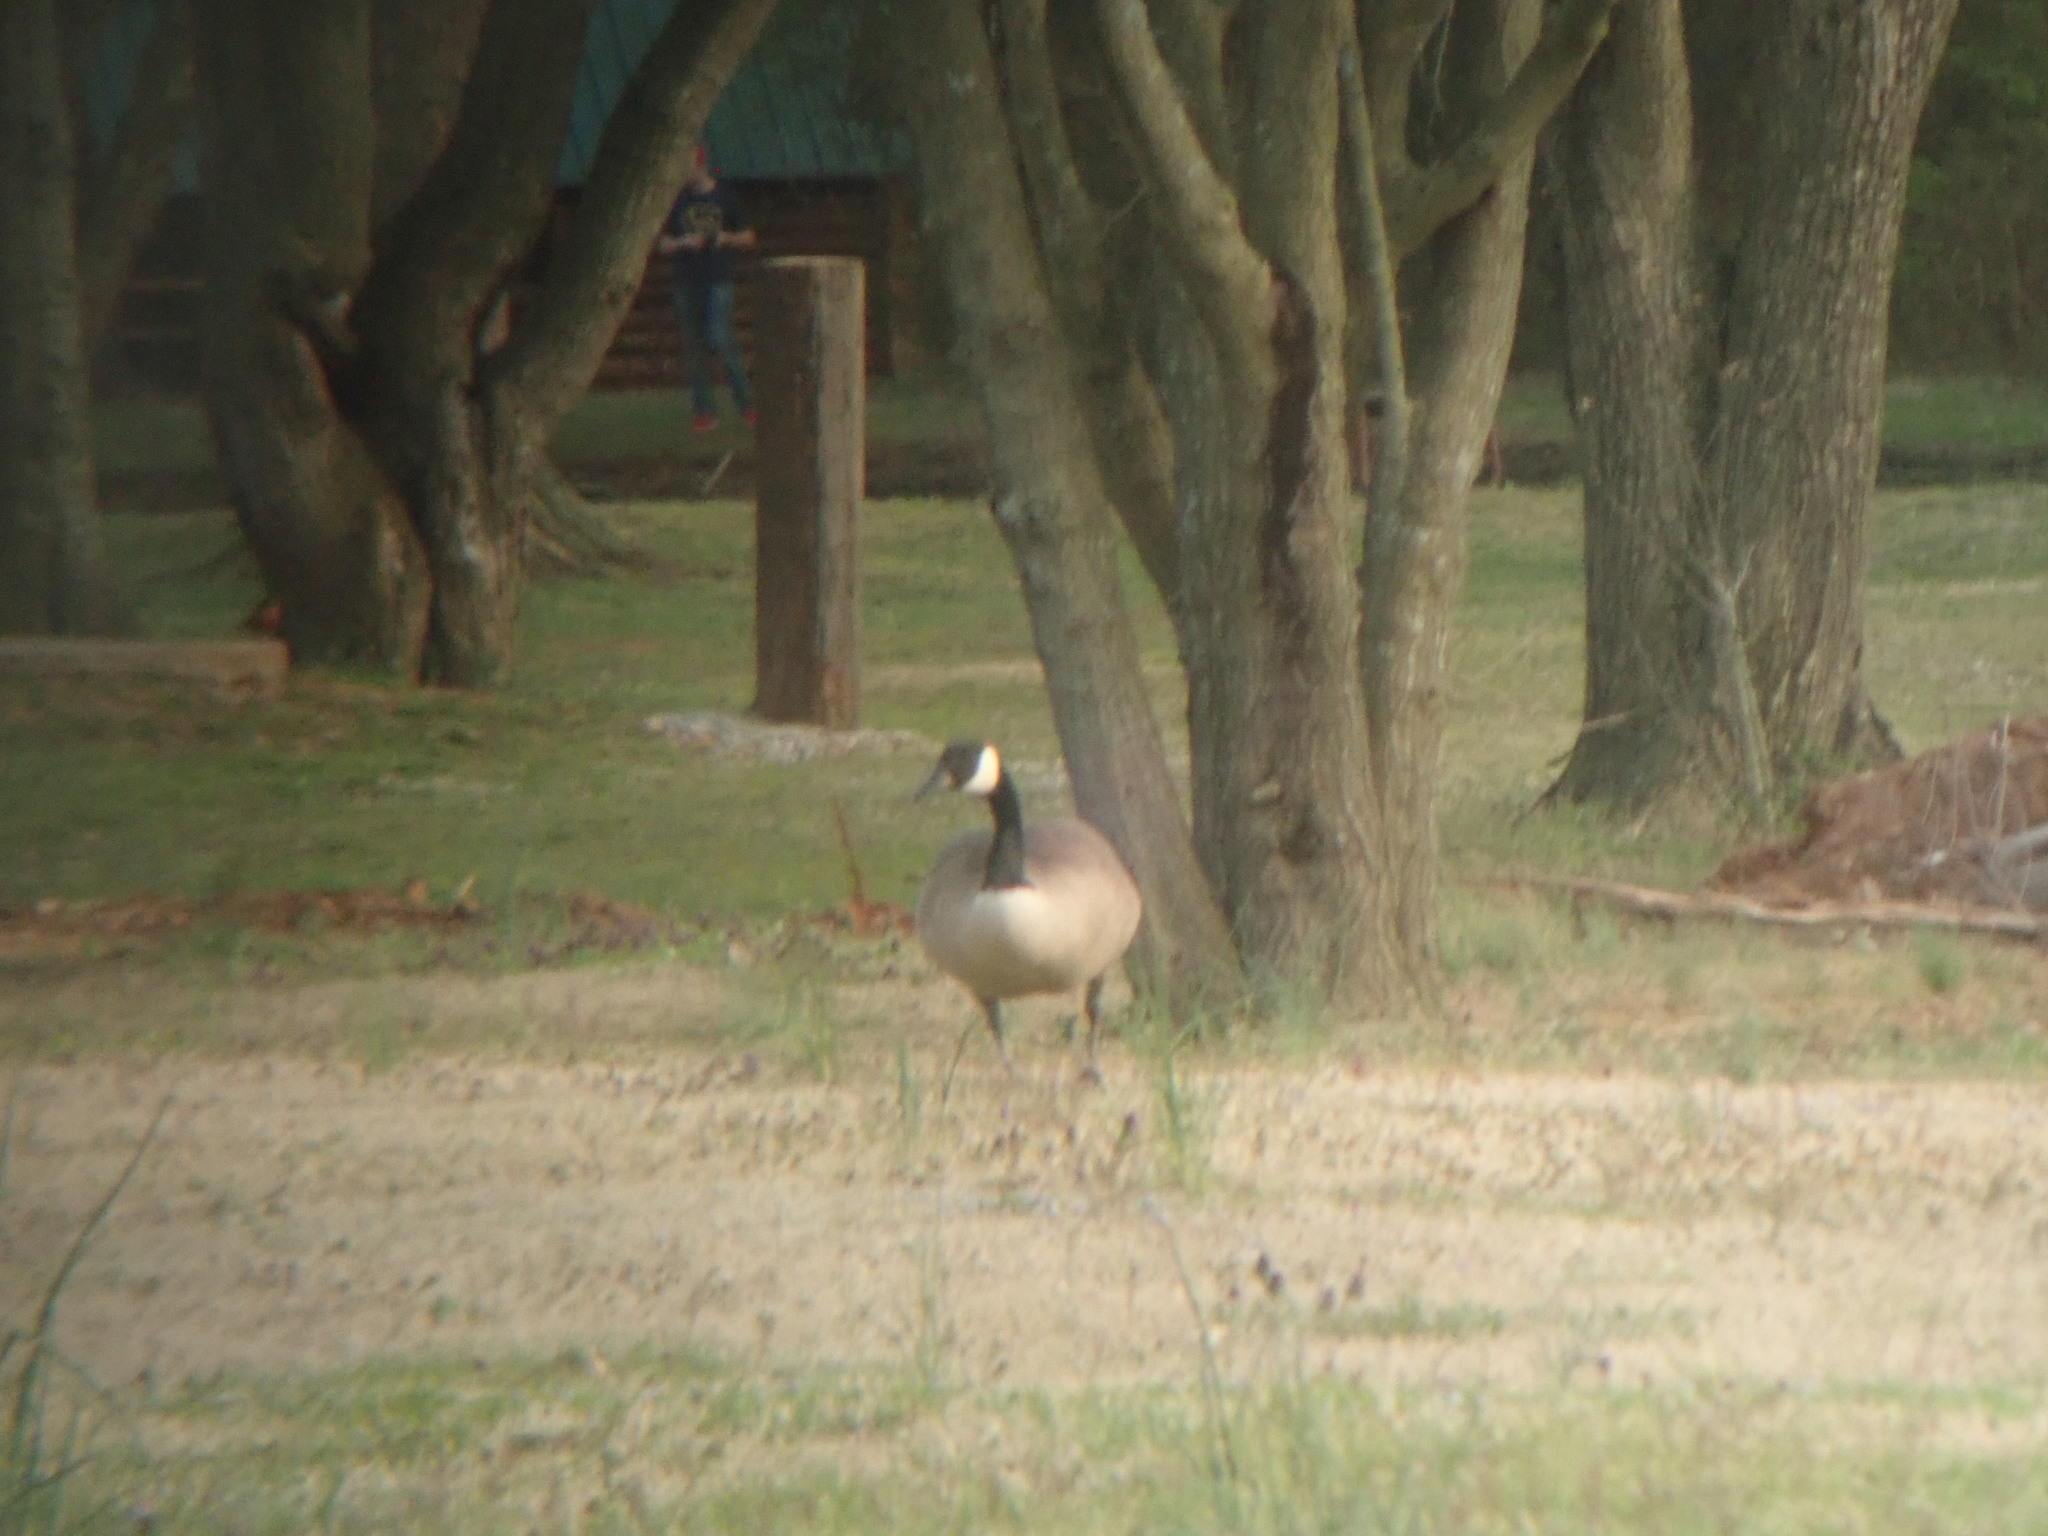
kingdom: Animalia
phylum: Chordata
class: Aves
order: Anseriformes
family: Anatidae
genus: Branta
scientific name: Branta canadensis
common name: Canada goose
